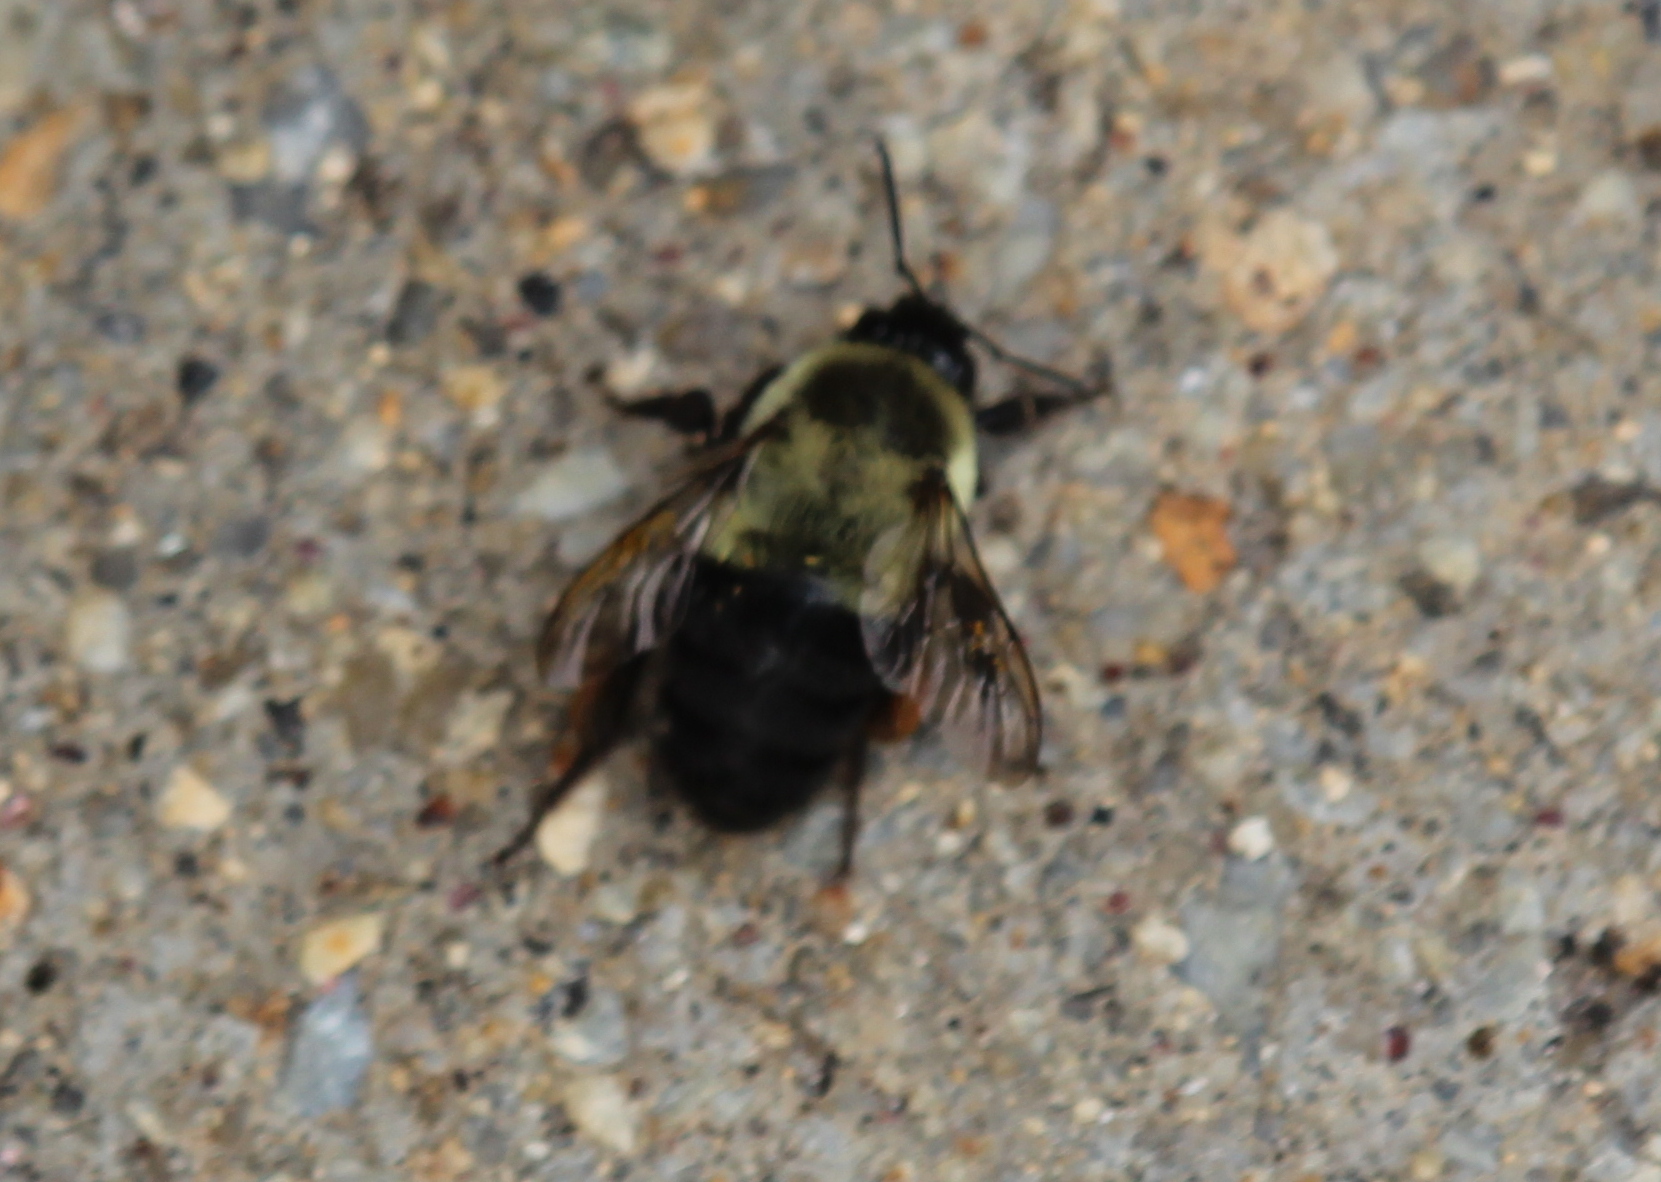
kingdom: Animalia
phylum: Arthropoda
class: Insecta
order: Hymenoptera
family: Apidae
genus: Bombus
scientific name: Bombus impatiens
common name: Common eastern bumble bee
